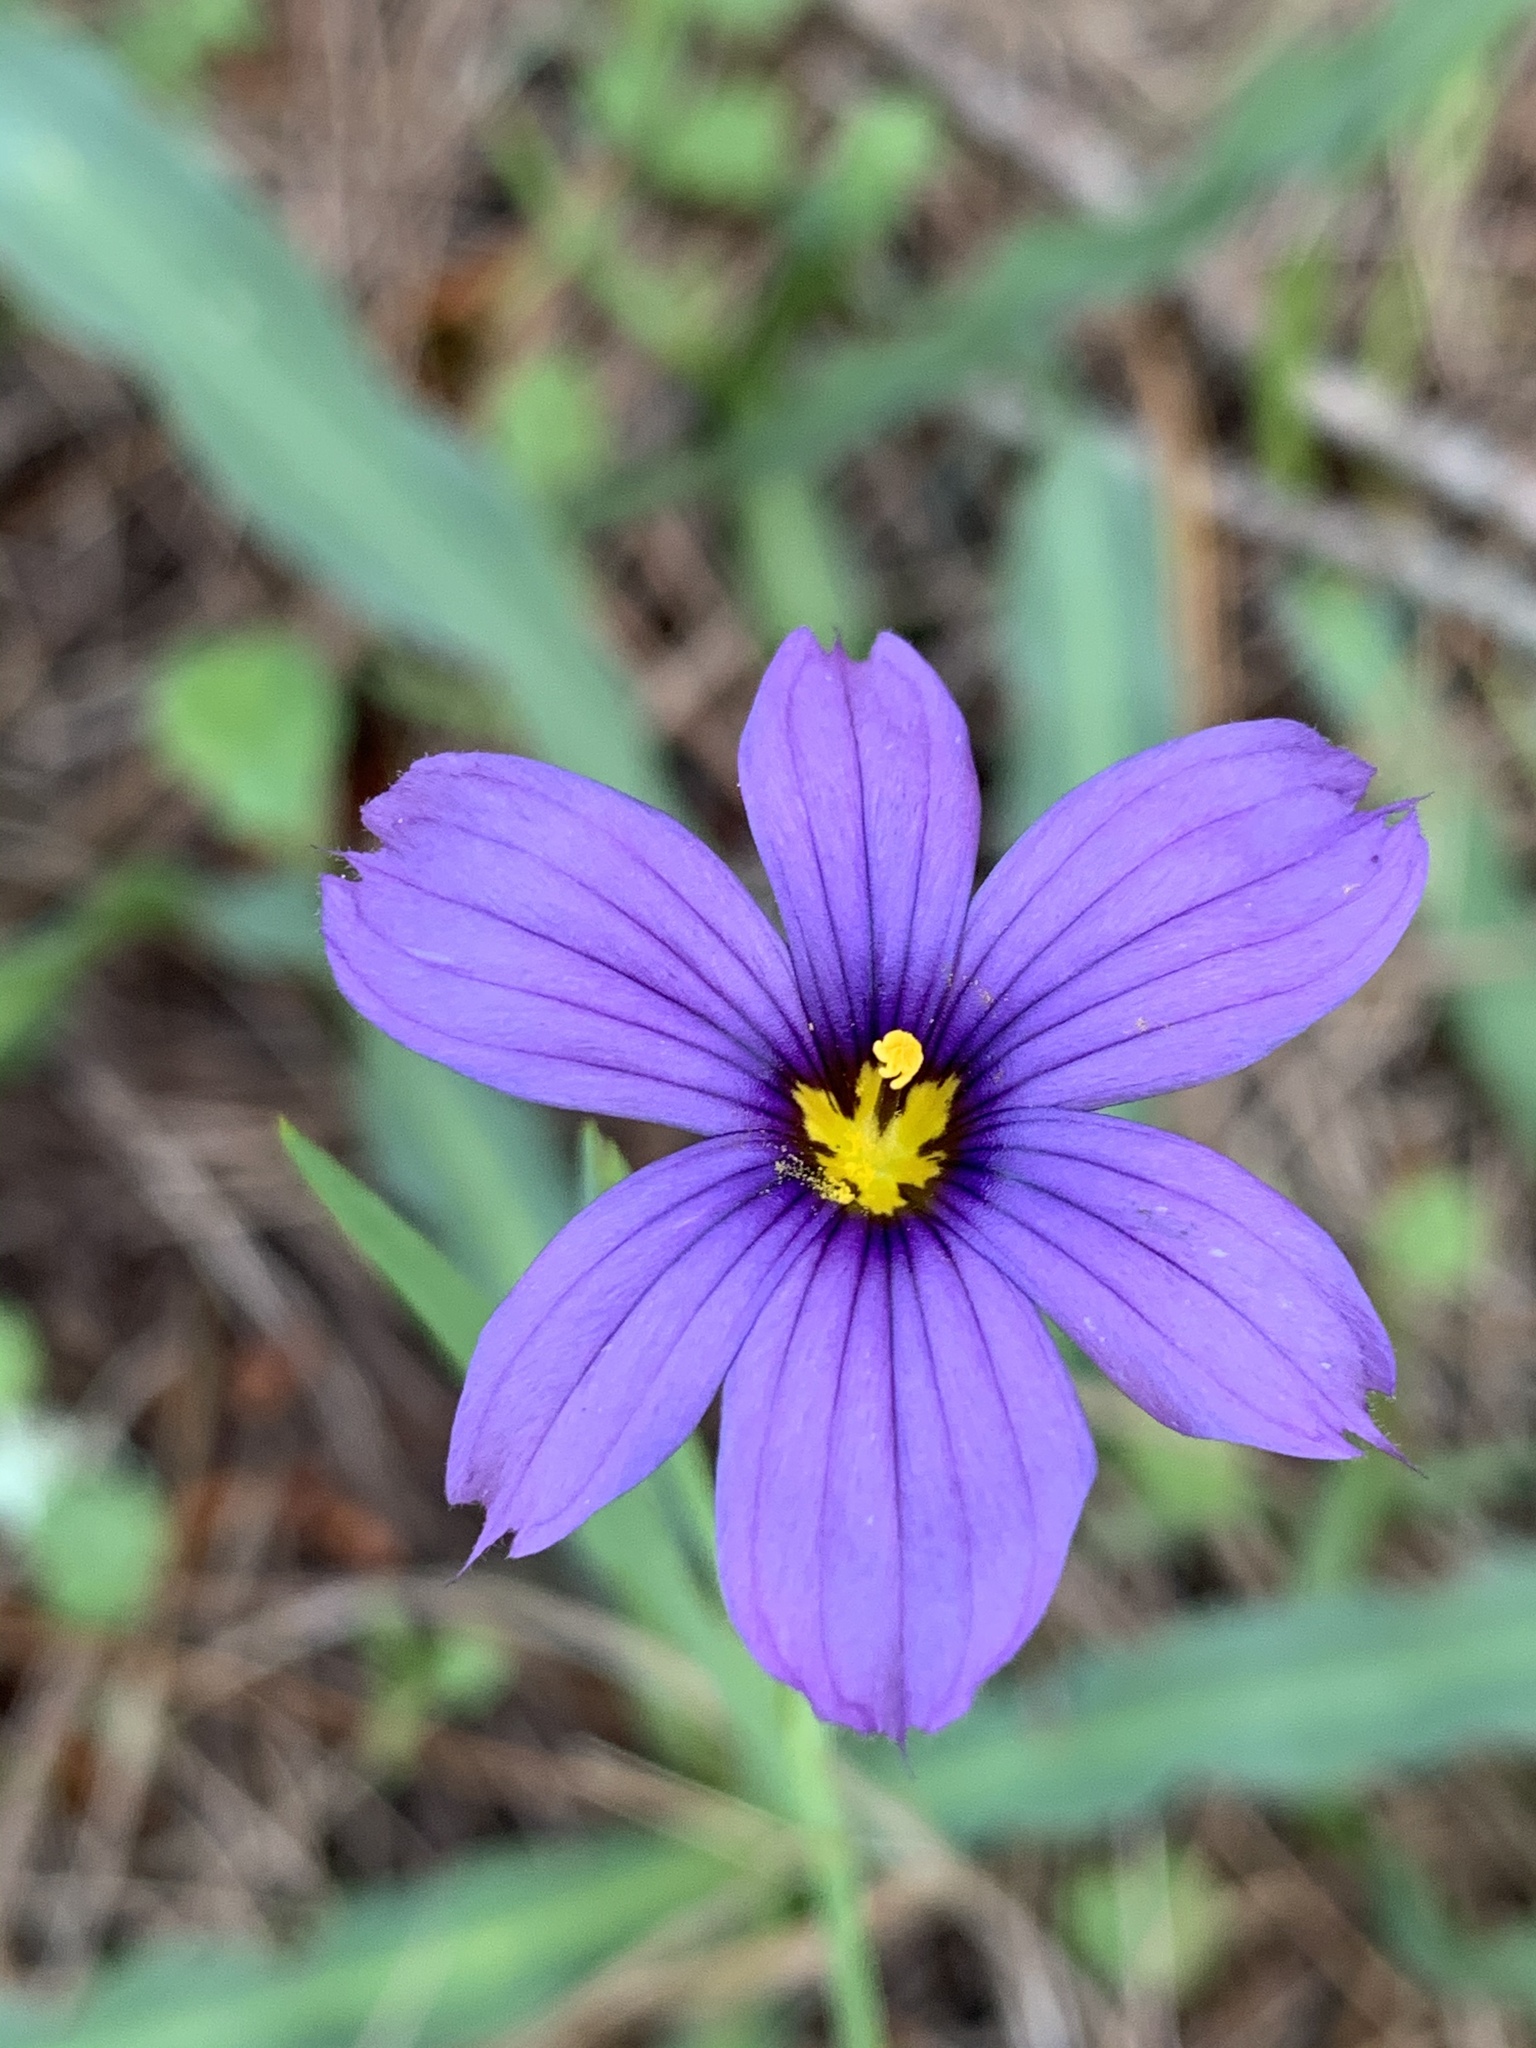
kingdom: Plantae
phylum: Tracheophyta
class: Liliopsida
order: Asparagales
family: Iridaceae
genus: Sisyrinchium
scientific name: Sisyrinchium bellum
